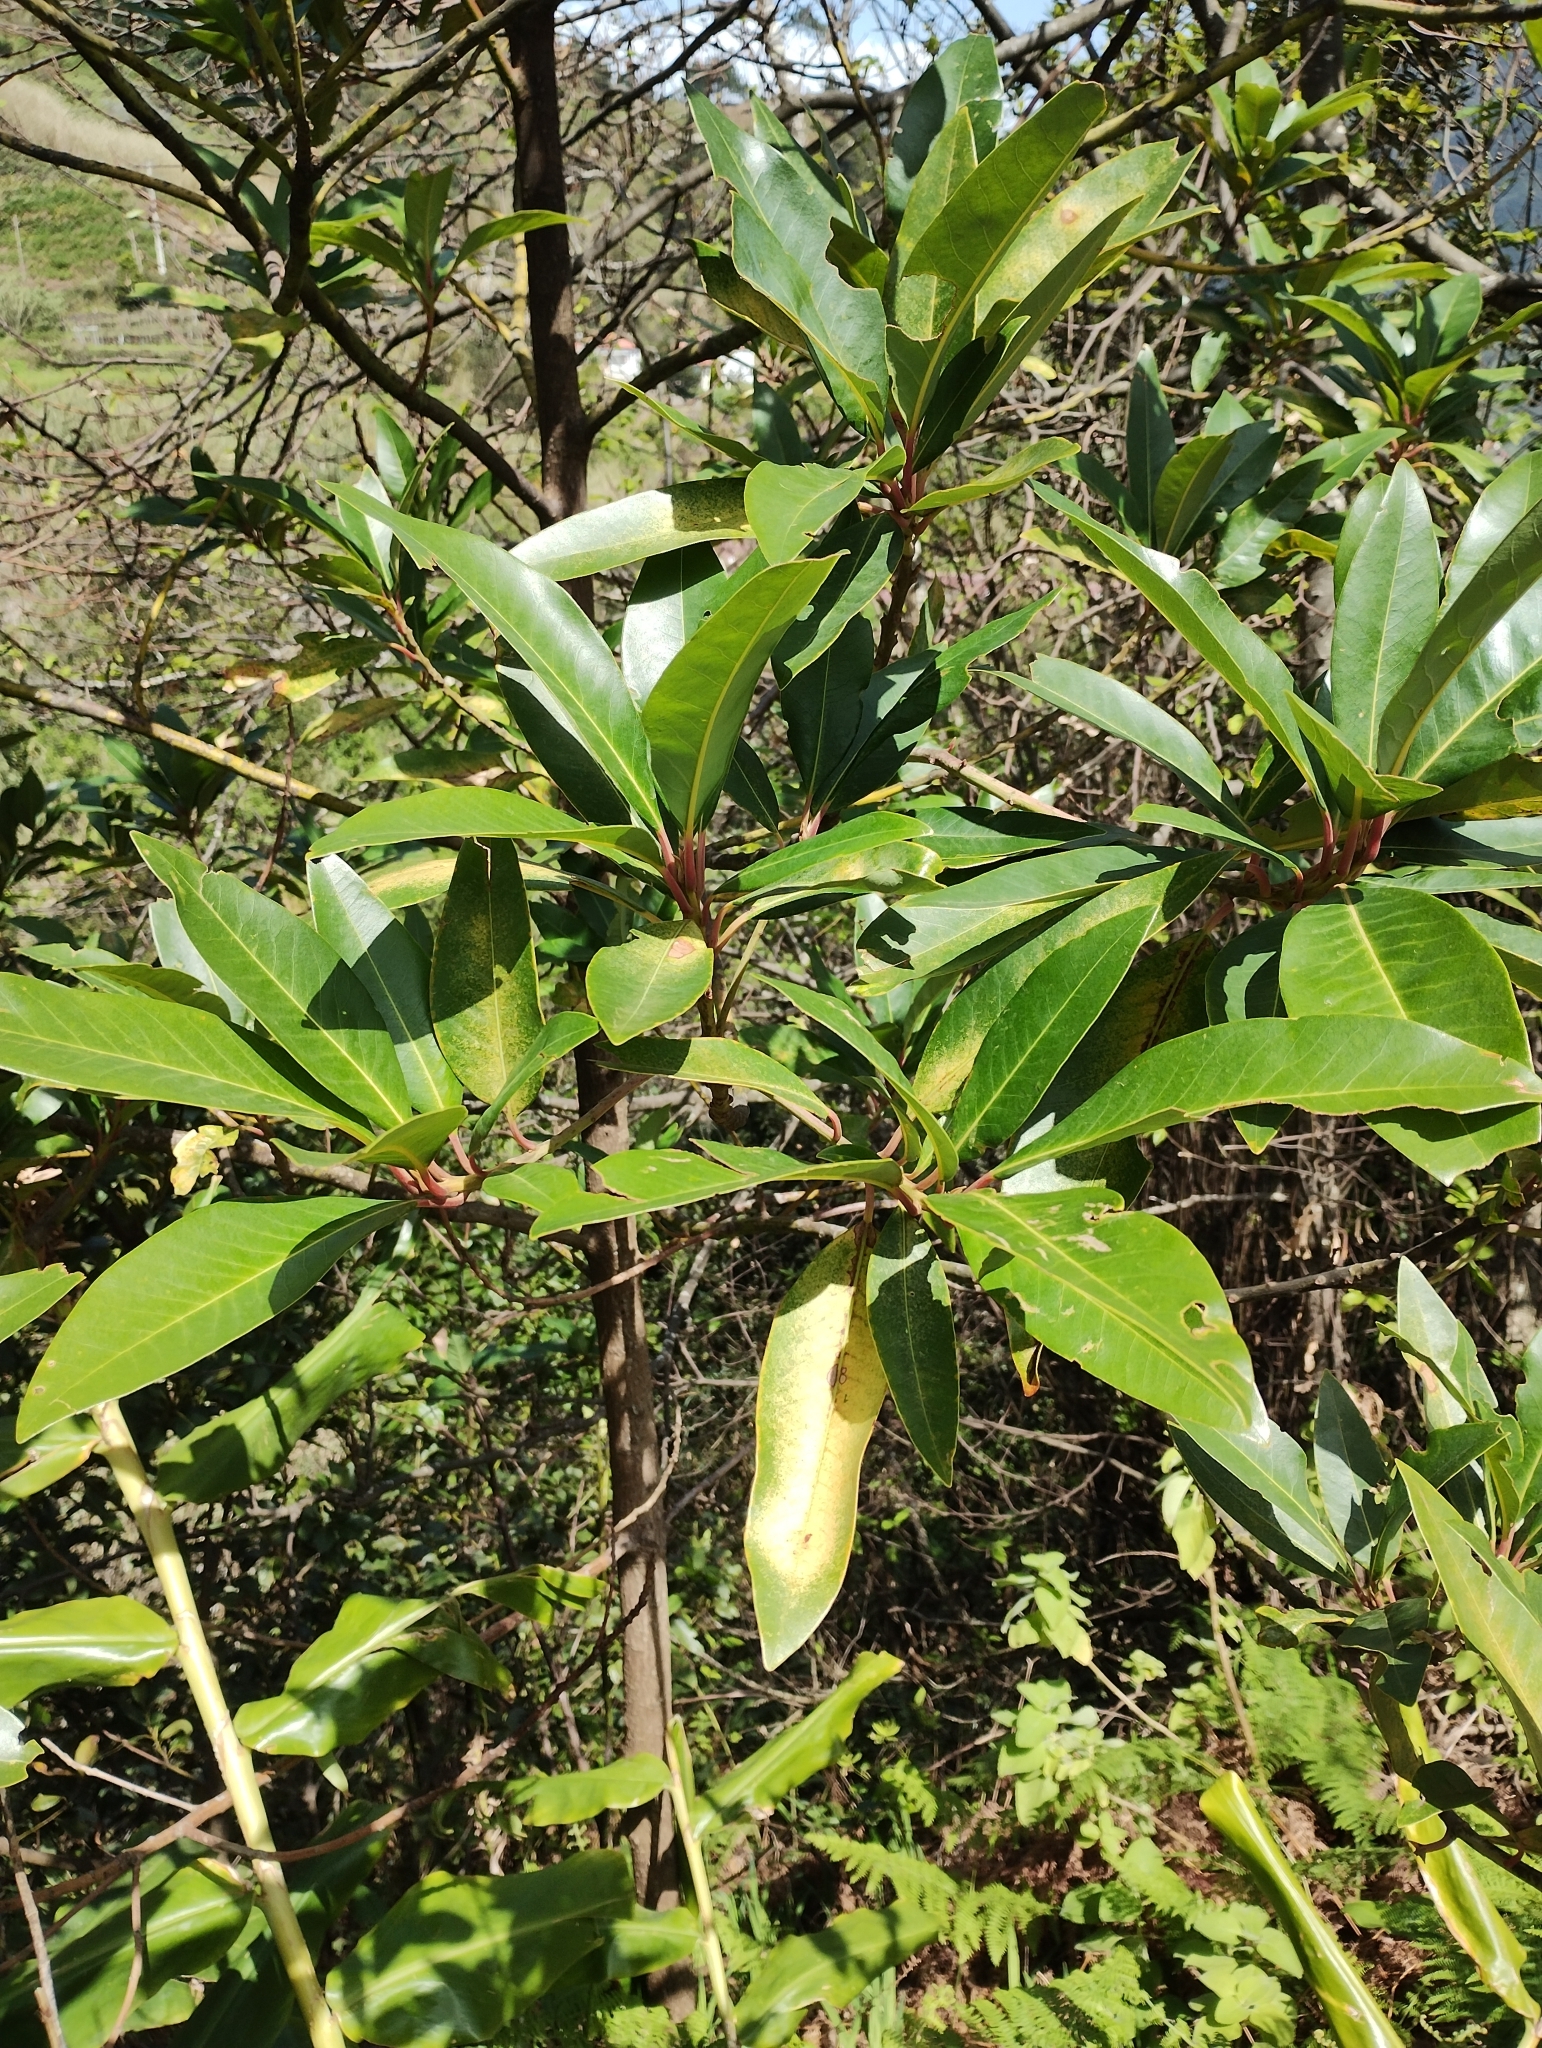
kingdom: Plantae
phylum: Tracheophyta
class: Magnoliopsida
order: Laurales
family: Lauraceae
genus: Persea
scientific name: Persea indica
